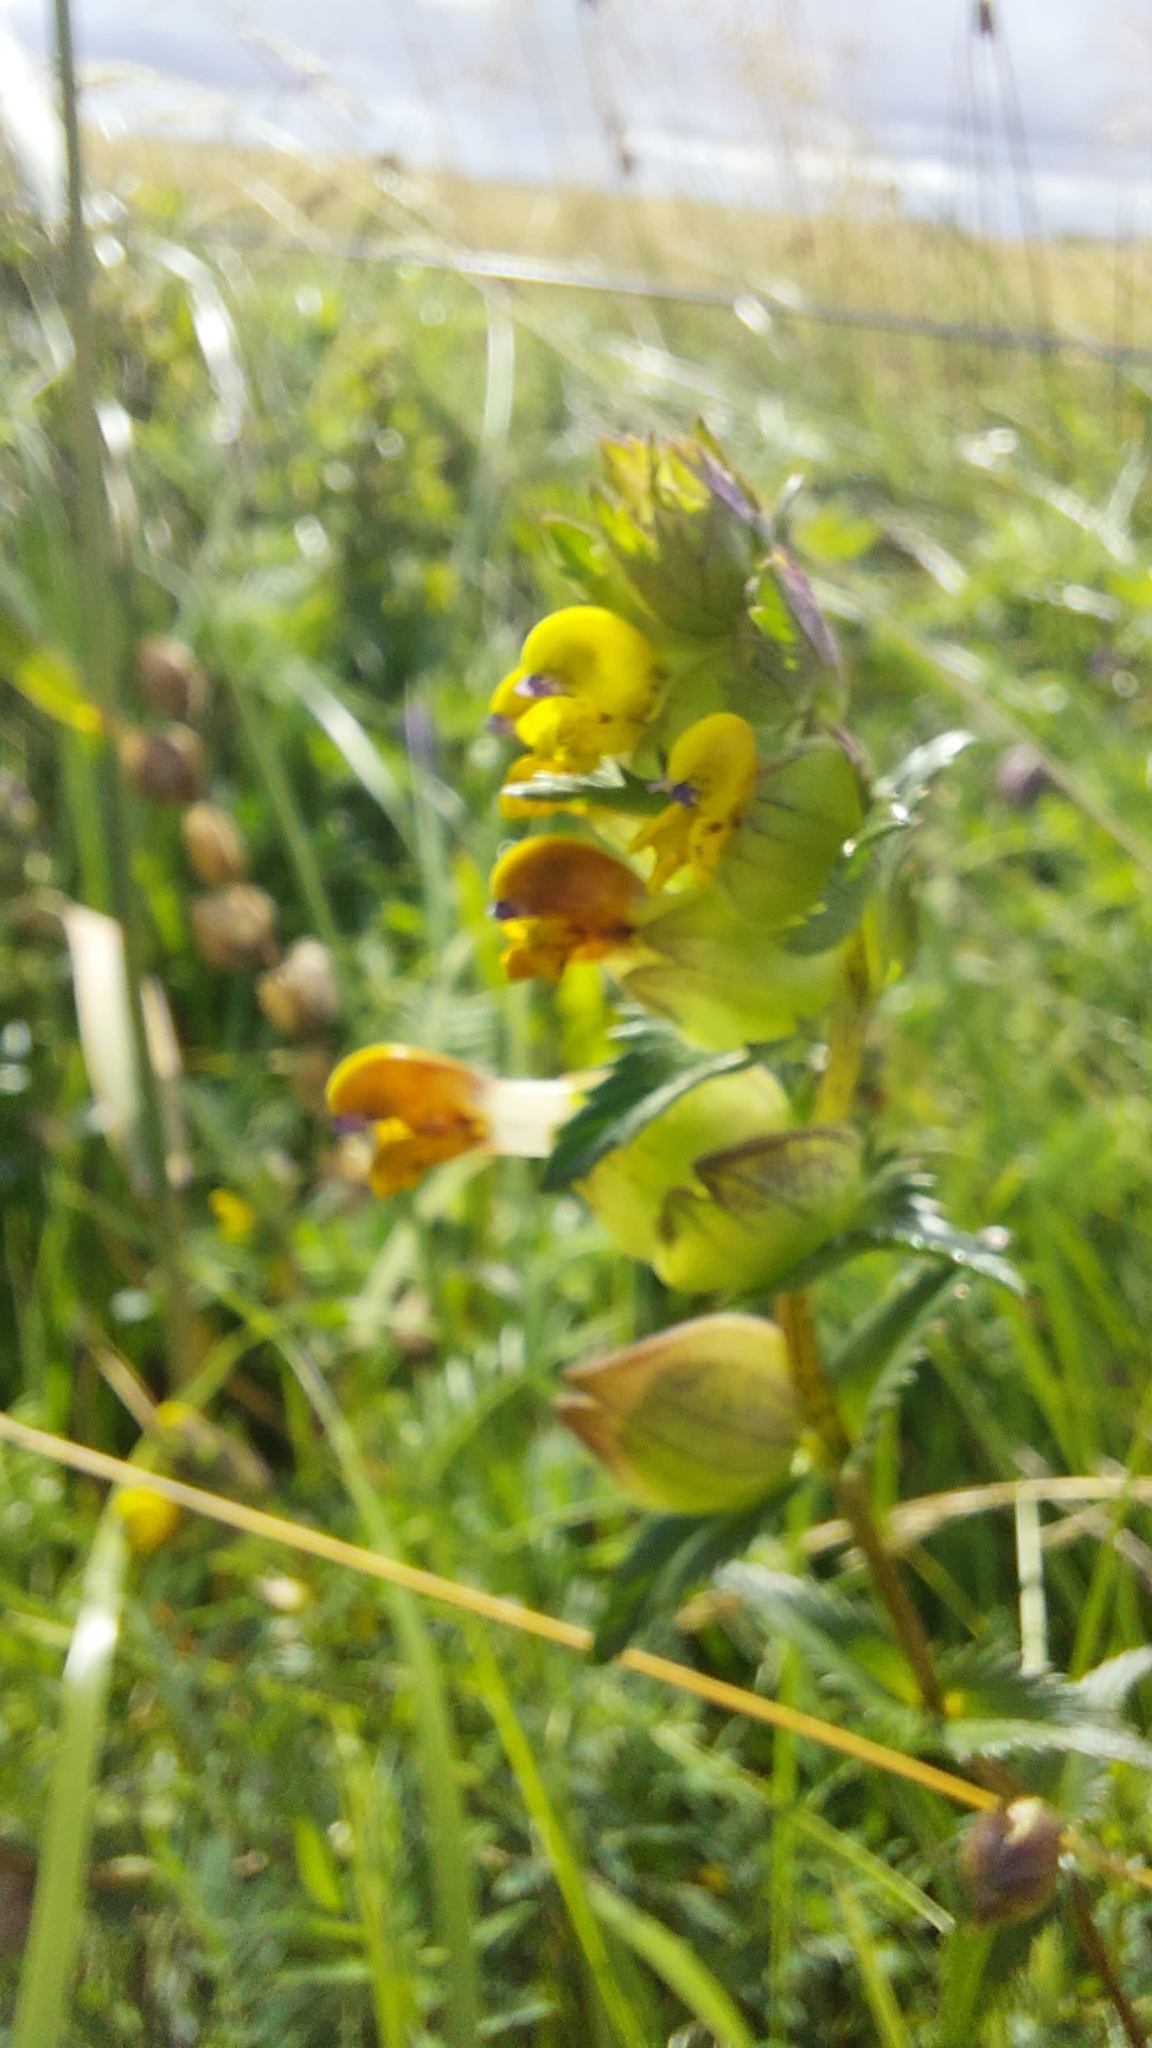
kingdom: Plantae
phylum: Tracheophyta
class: Magnoliopsida
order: Lamiales
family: Orobanchaceae
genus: Rhinanthus
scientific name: Rhinanthus minor
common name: Yellow-rattle
